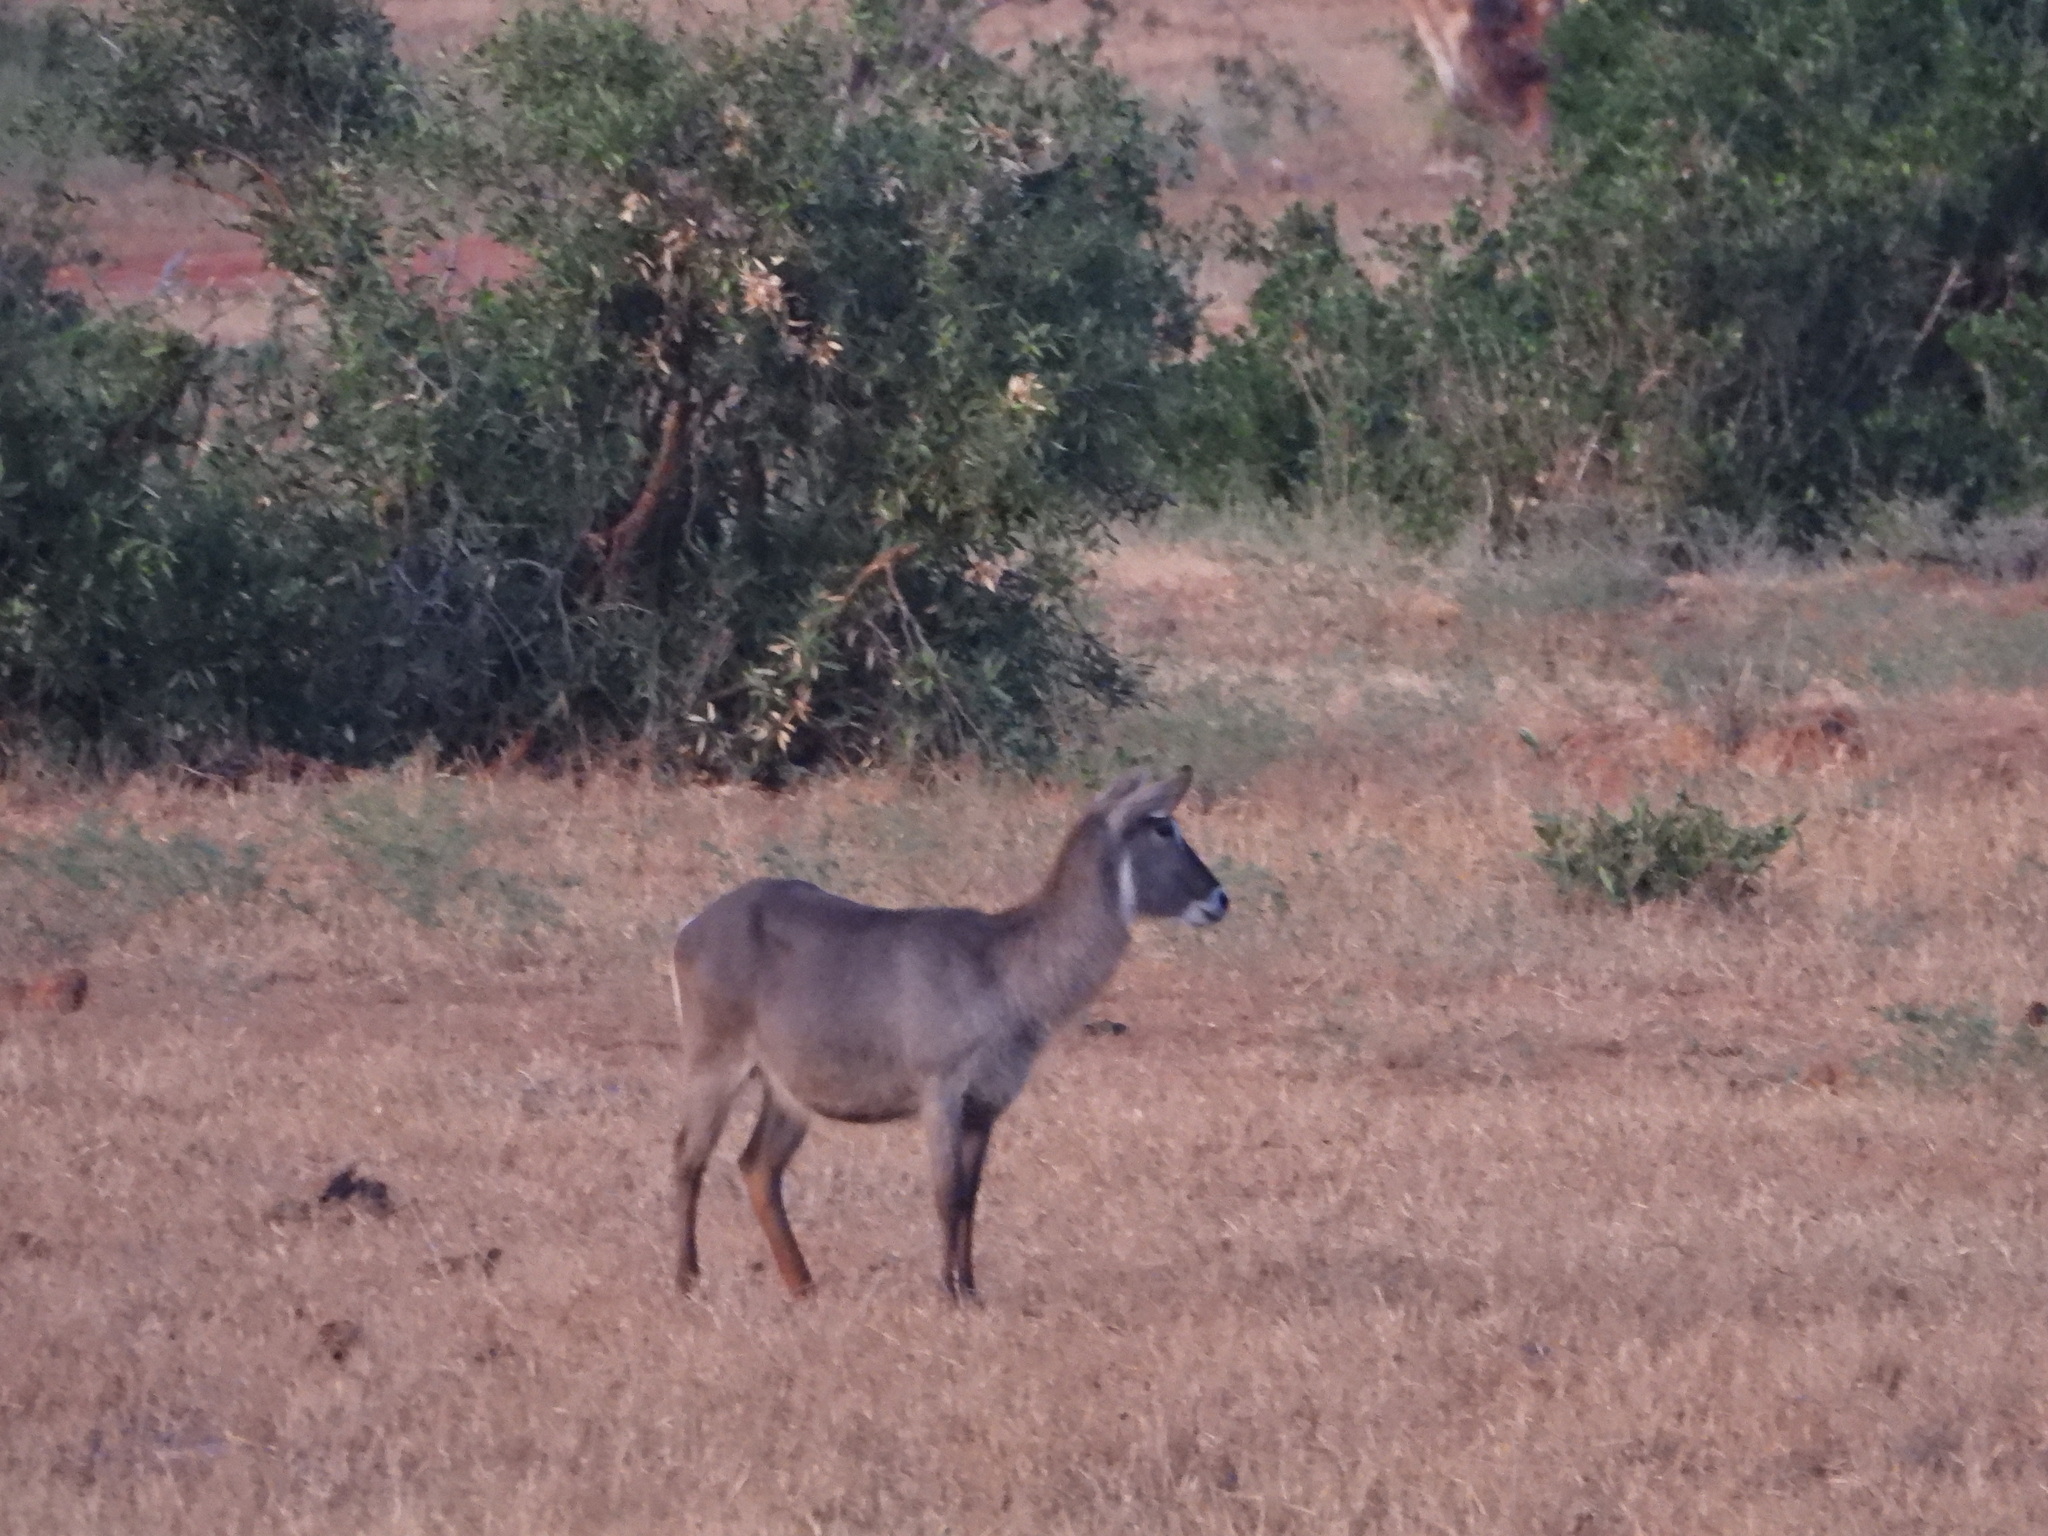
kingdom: Animalia
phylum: Chordata
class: Mammalia
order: Artiodactyla
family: Bovidae
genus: Kobus
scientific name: Kobus ellipsiprymnus
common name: Waterbuck
